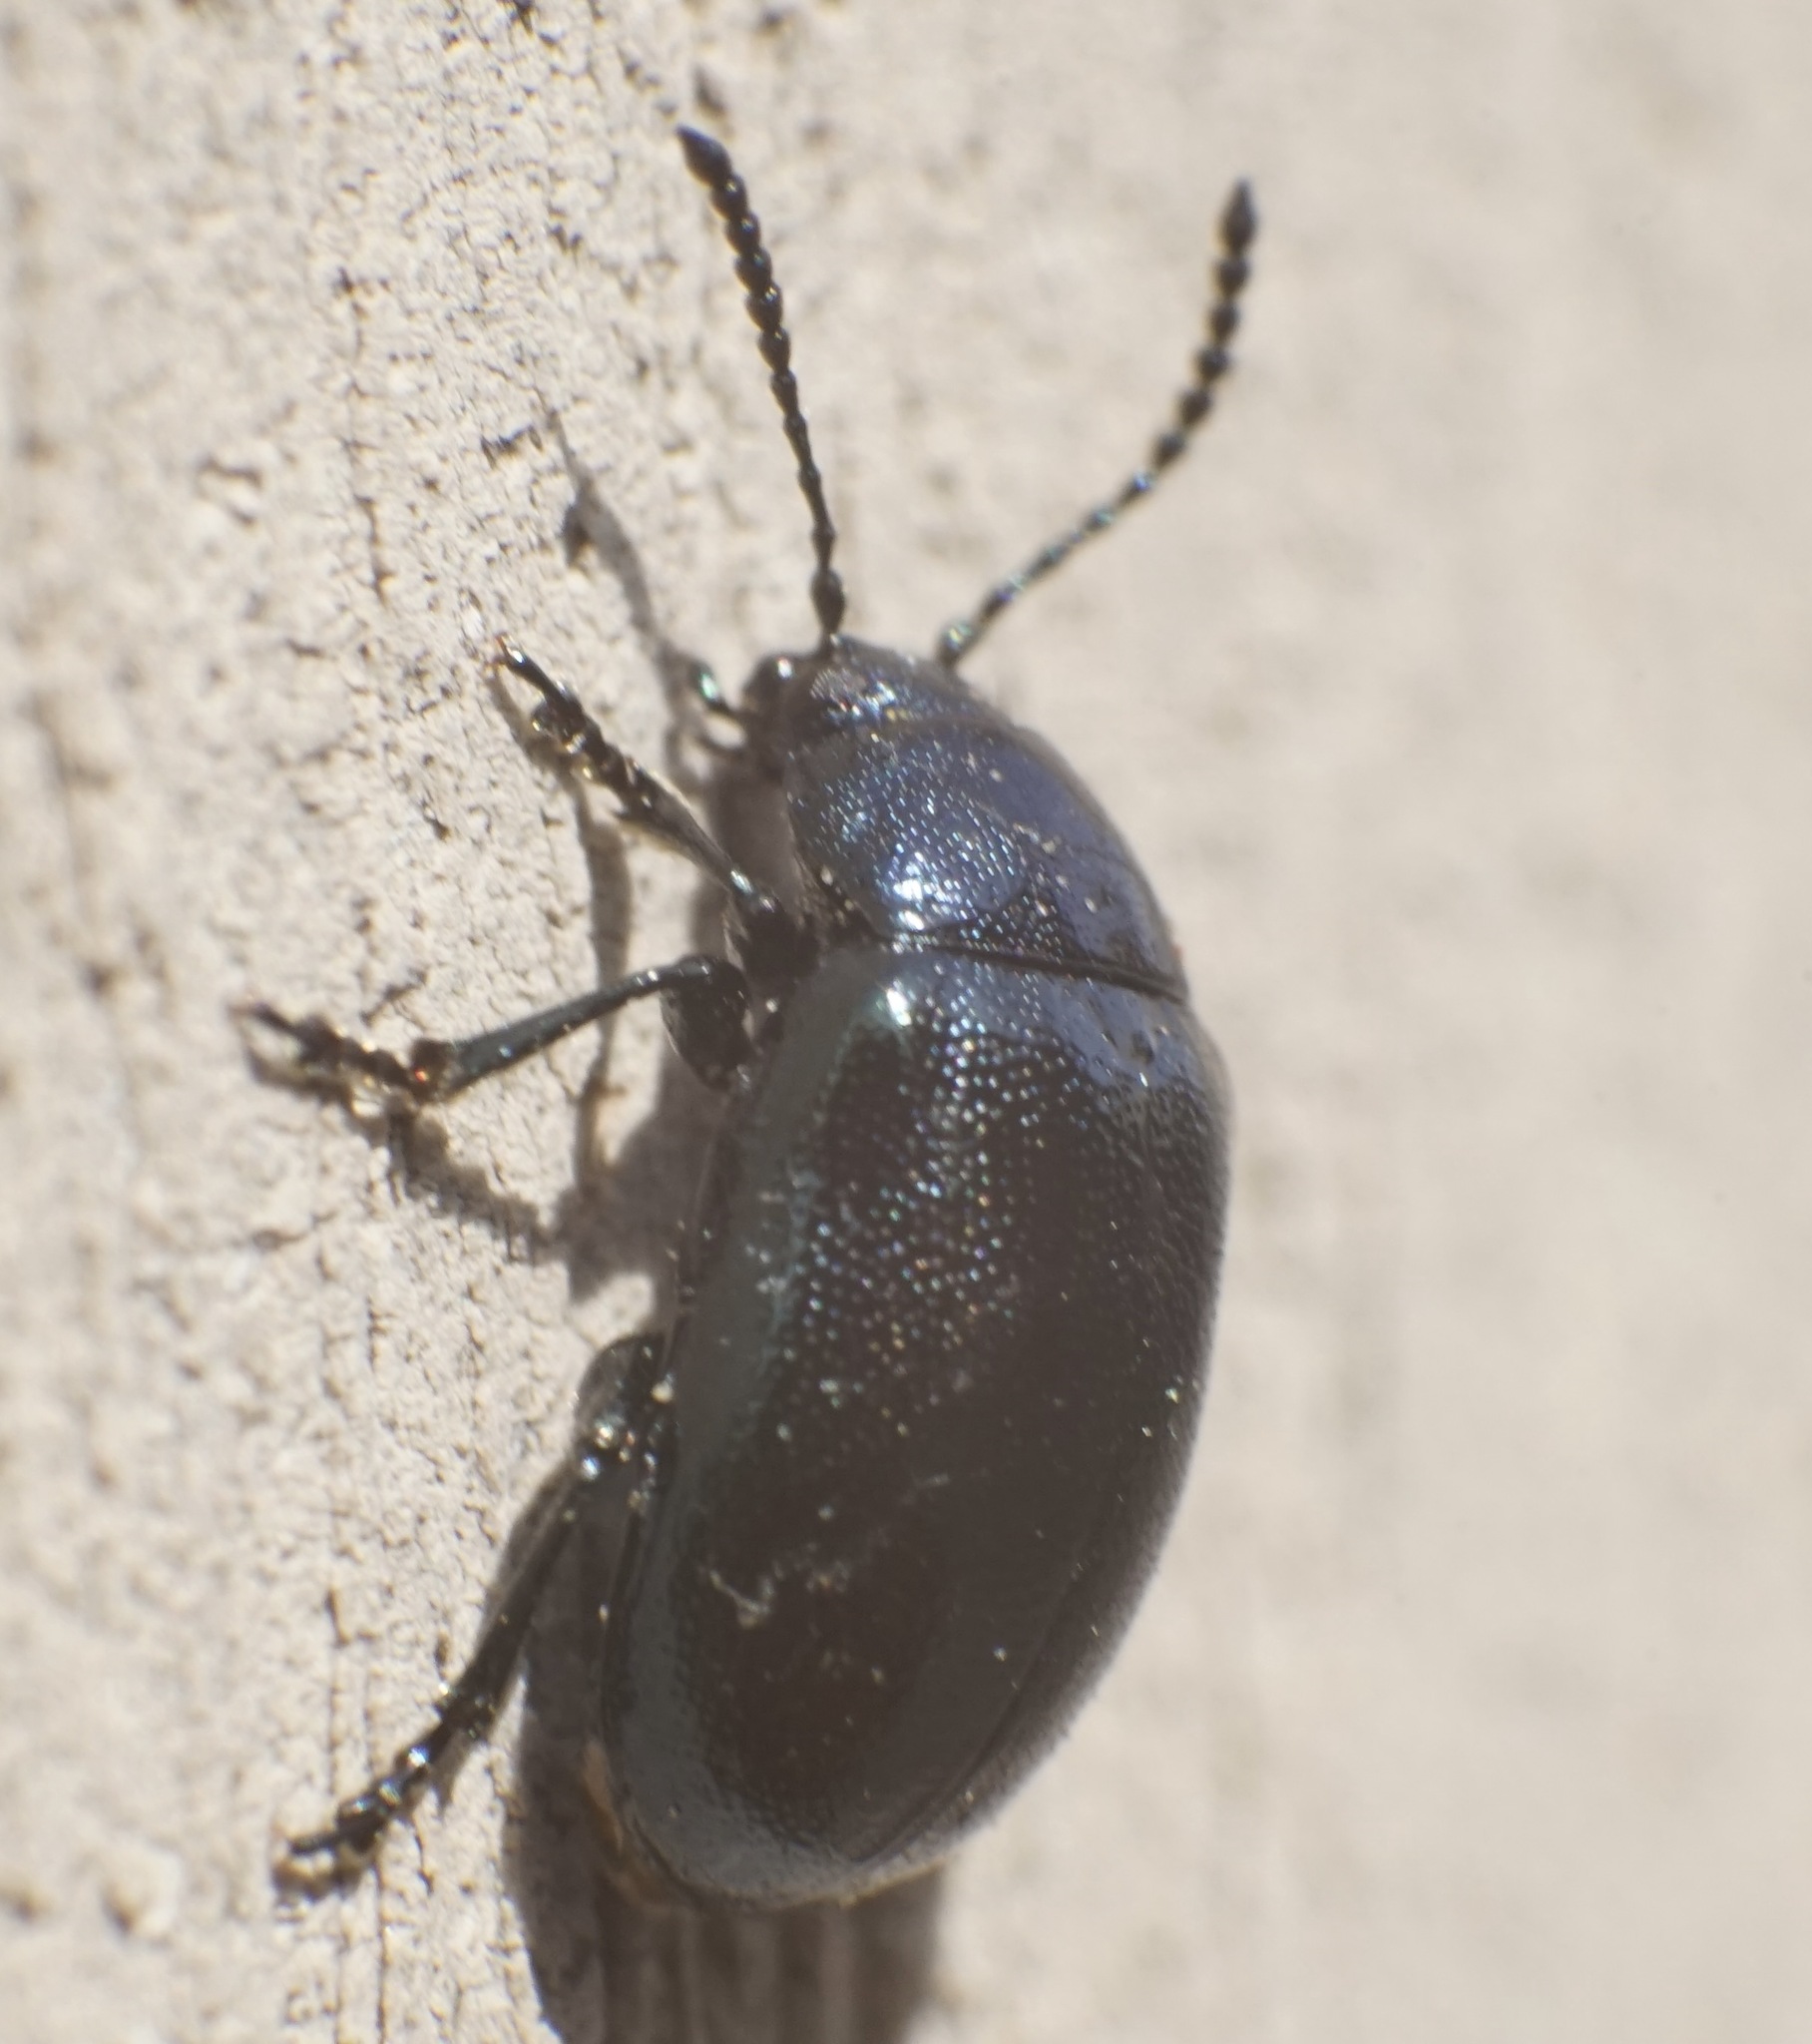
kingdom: Animalia
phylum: Arthropoda
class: Insecta
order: Coleoptera
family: Chrysomelidae
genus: Gastrophysa
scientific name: Gastrophysa atrocyanea
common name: Leaf beetle
